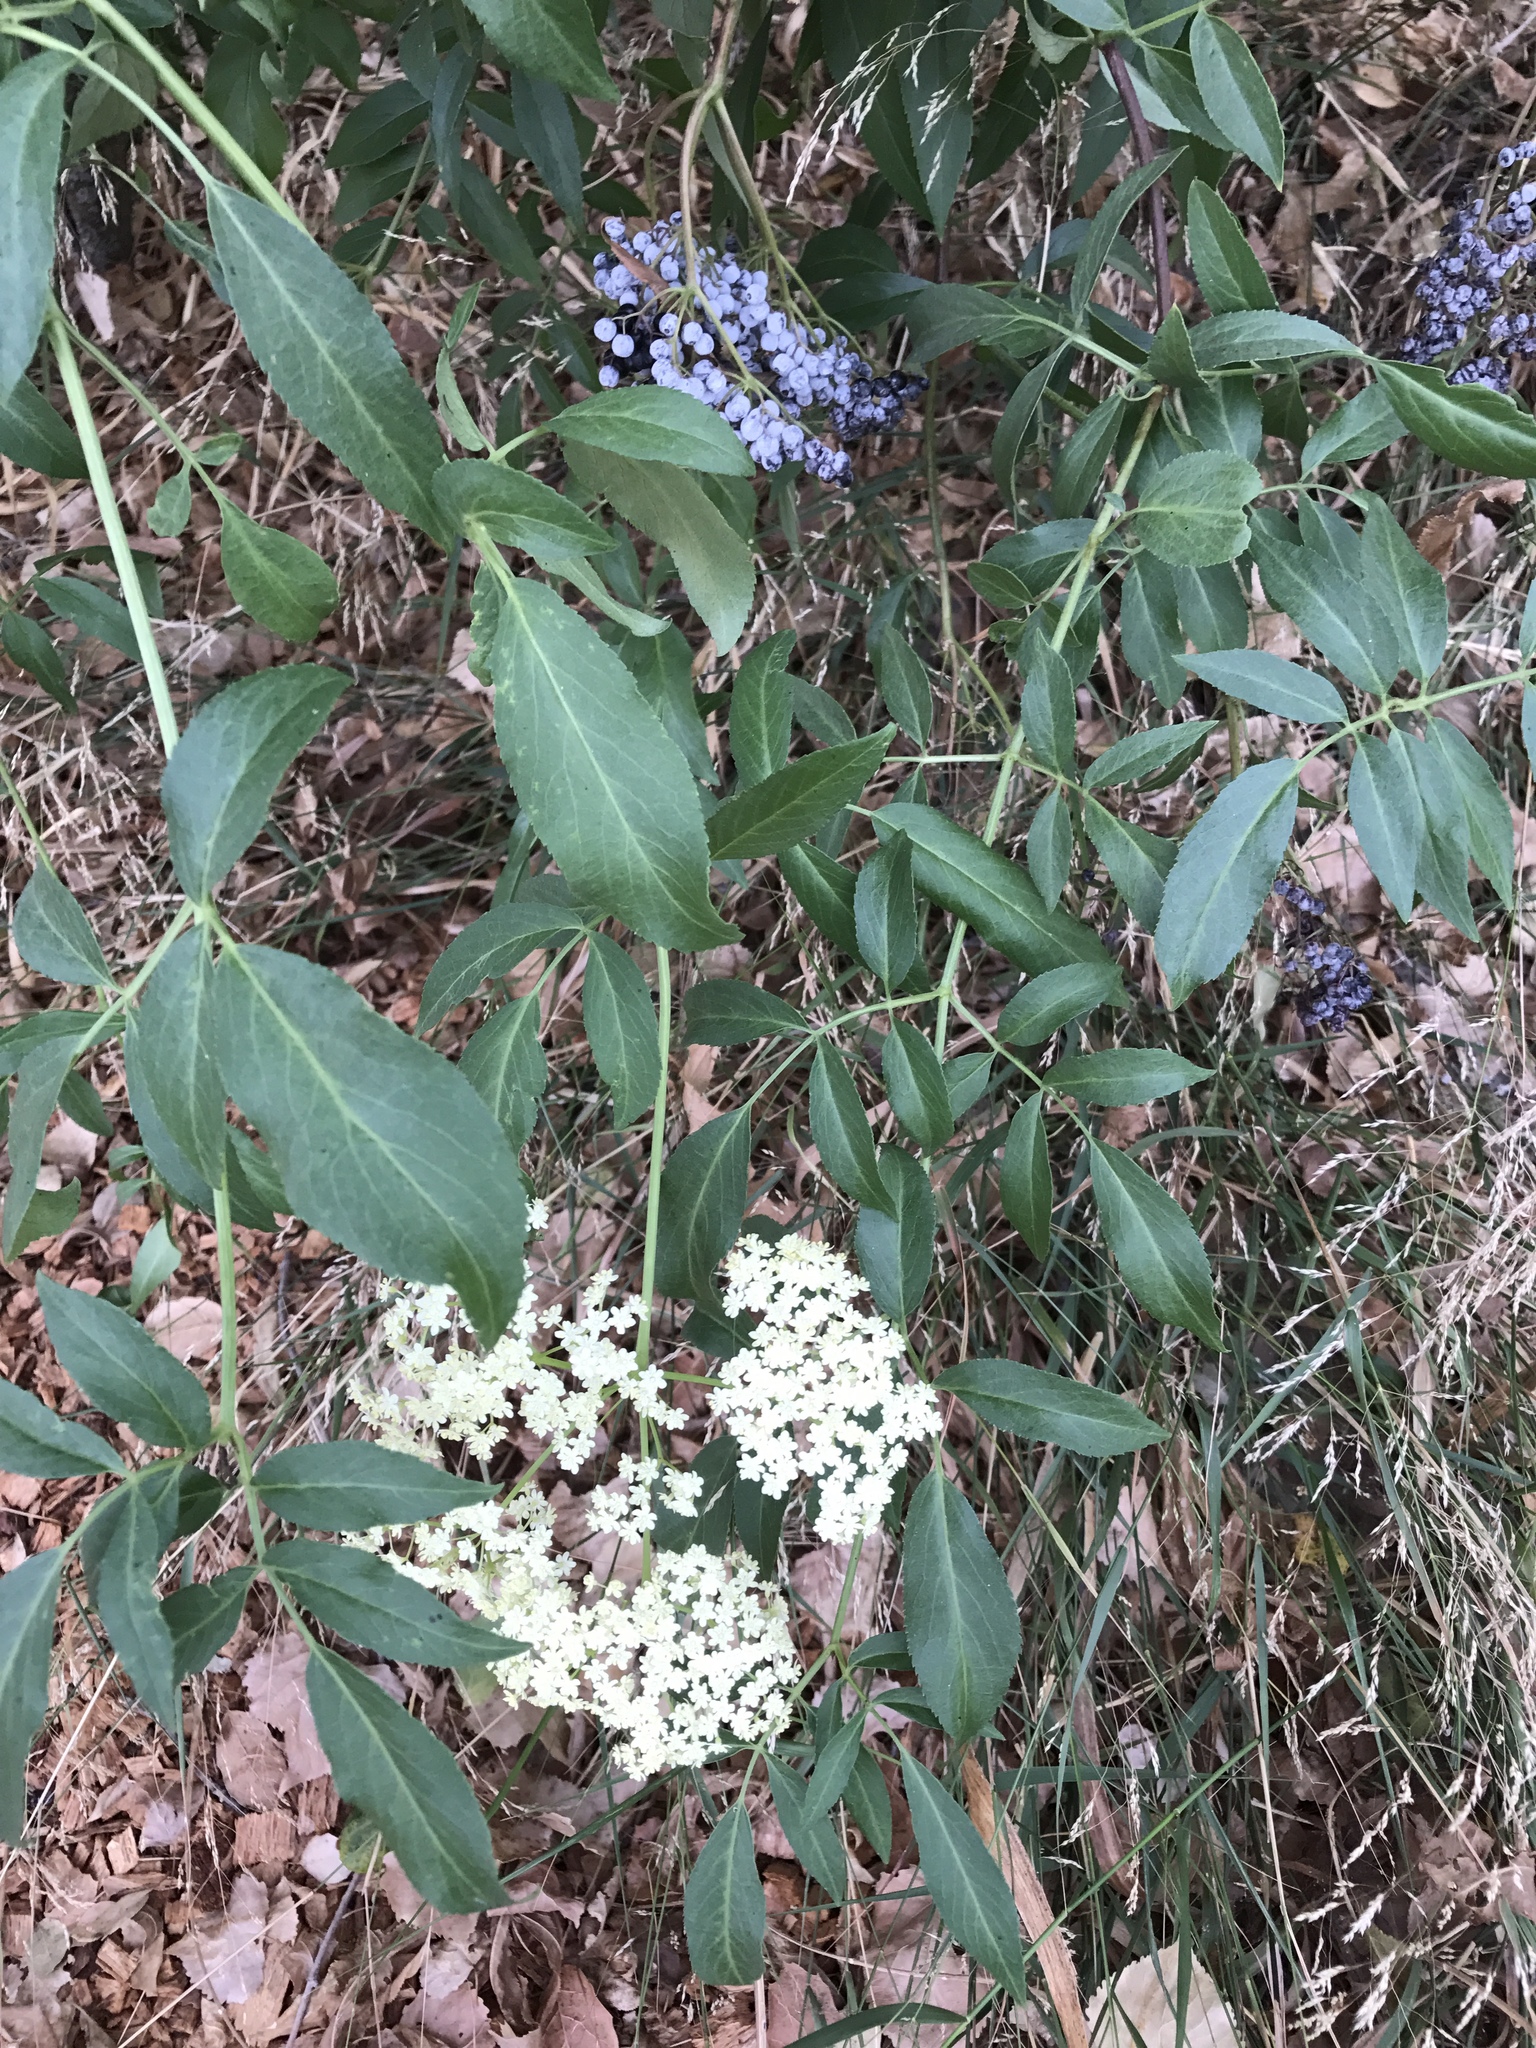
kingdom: Plantae
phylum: Tracheophyta
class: Magnoliopsida
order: Dipsacales
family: Viburnaceae
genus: Sambucus
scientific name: Sambucus cerulea
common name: Blue elder
